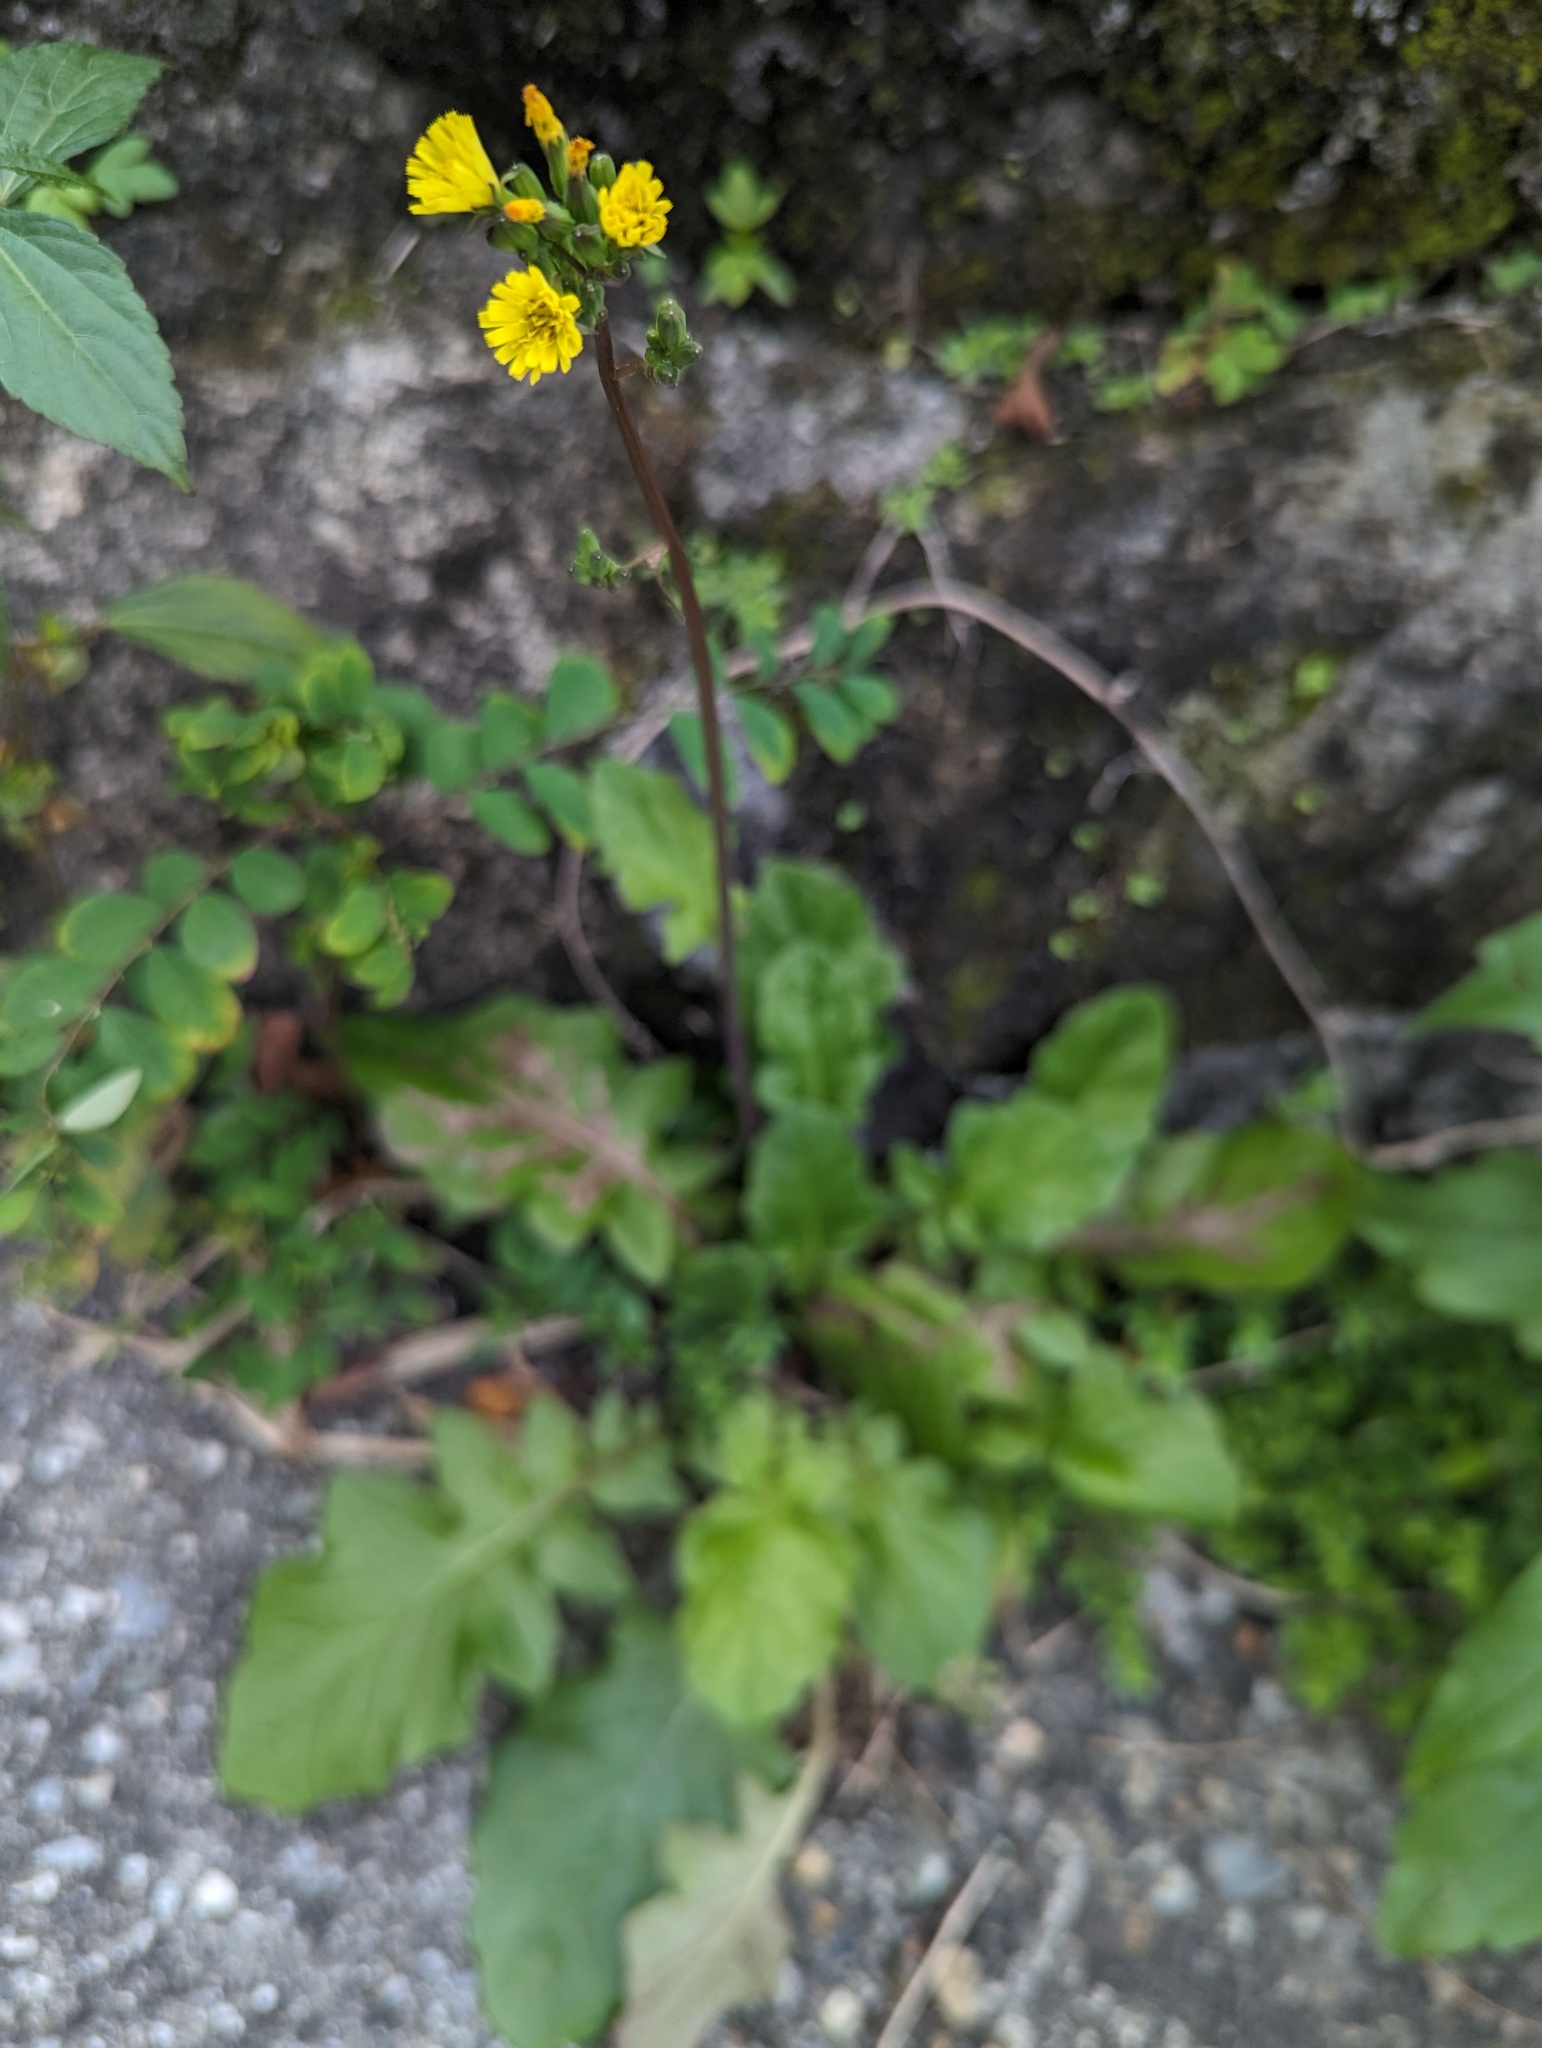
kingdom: Plantae
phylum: Tracheophyta
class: Magnoliopsida
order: Asterales
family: Asteraceae
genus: Youngia
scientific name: Youngia japonica
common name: Oriental false hawksbeard
